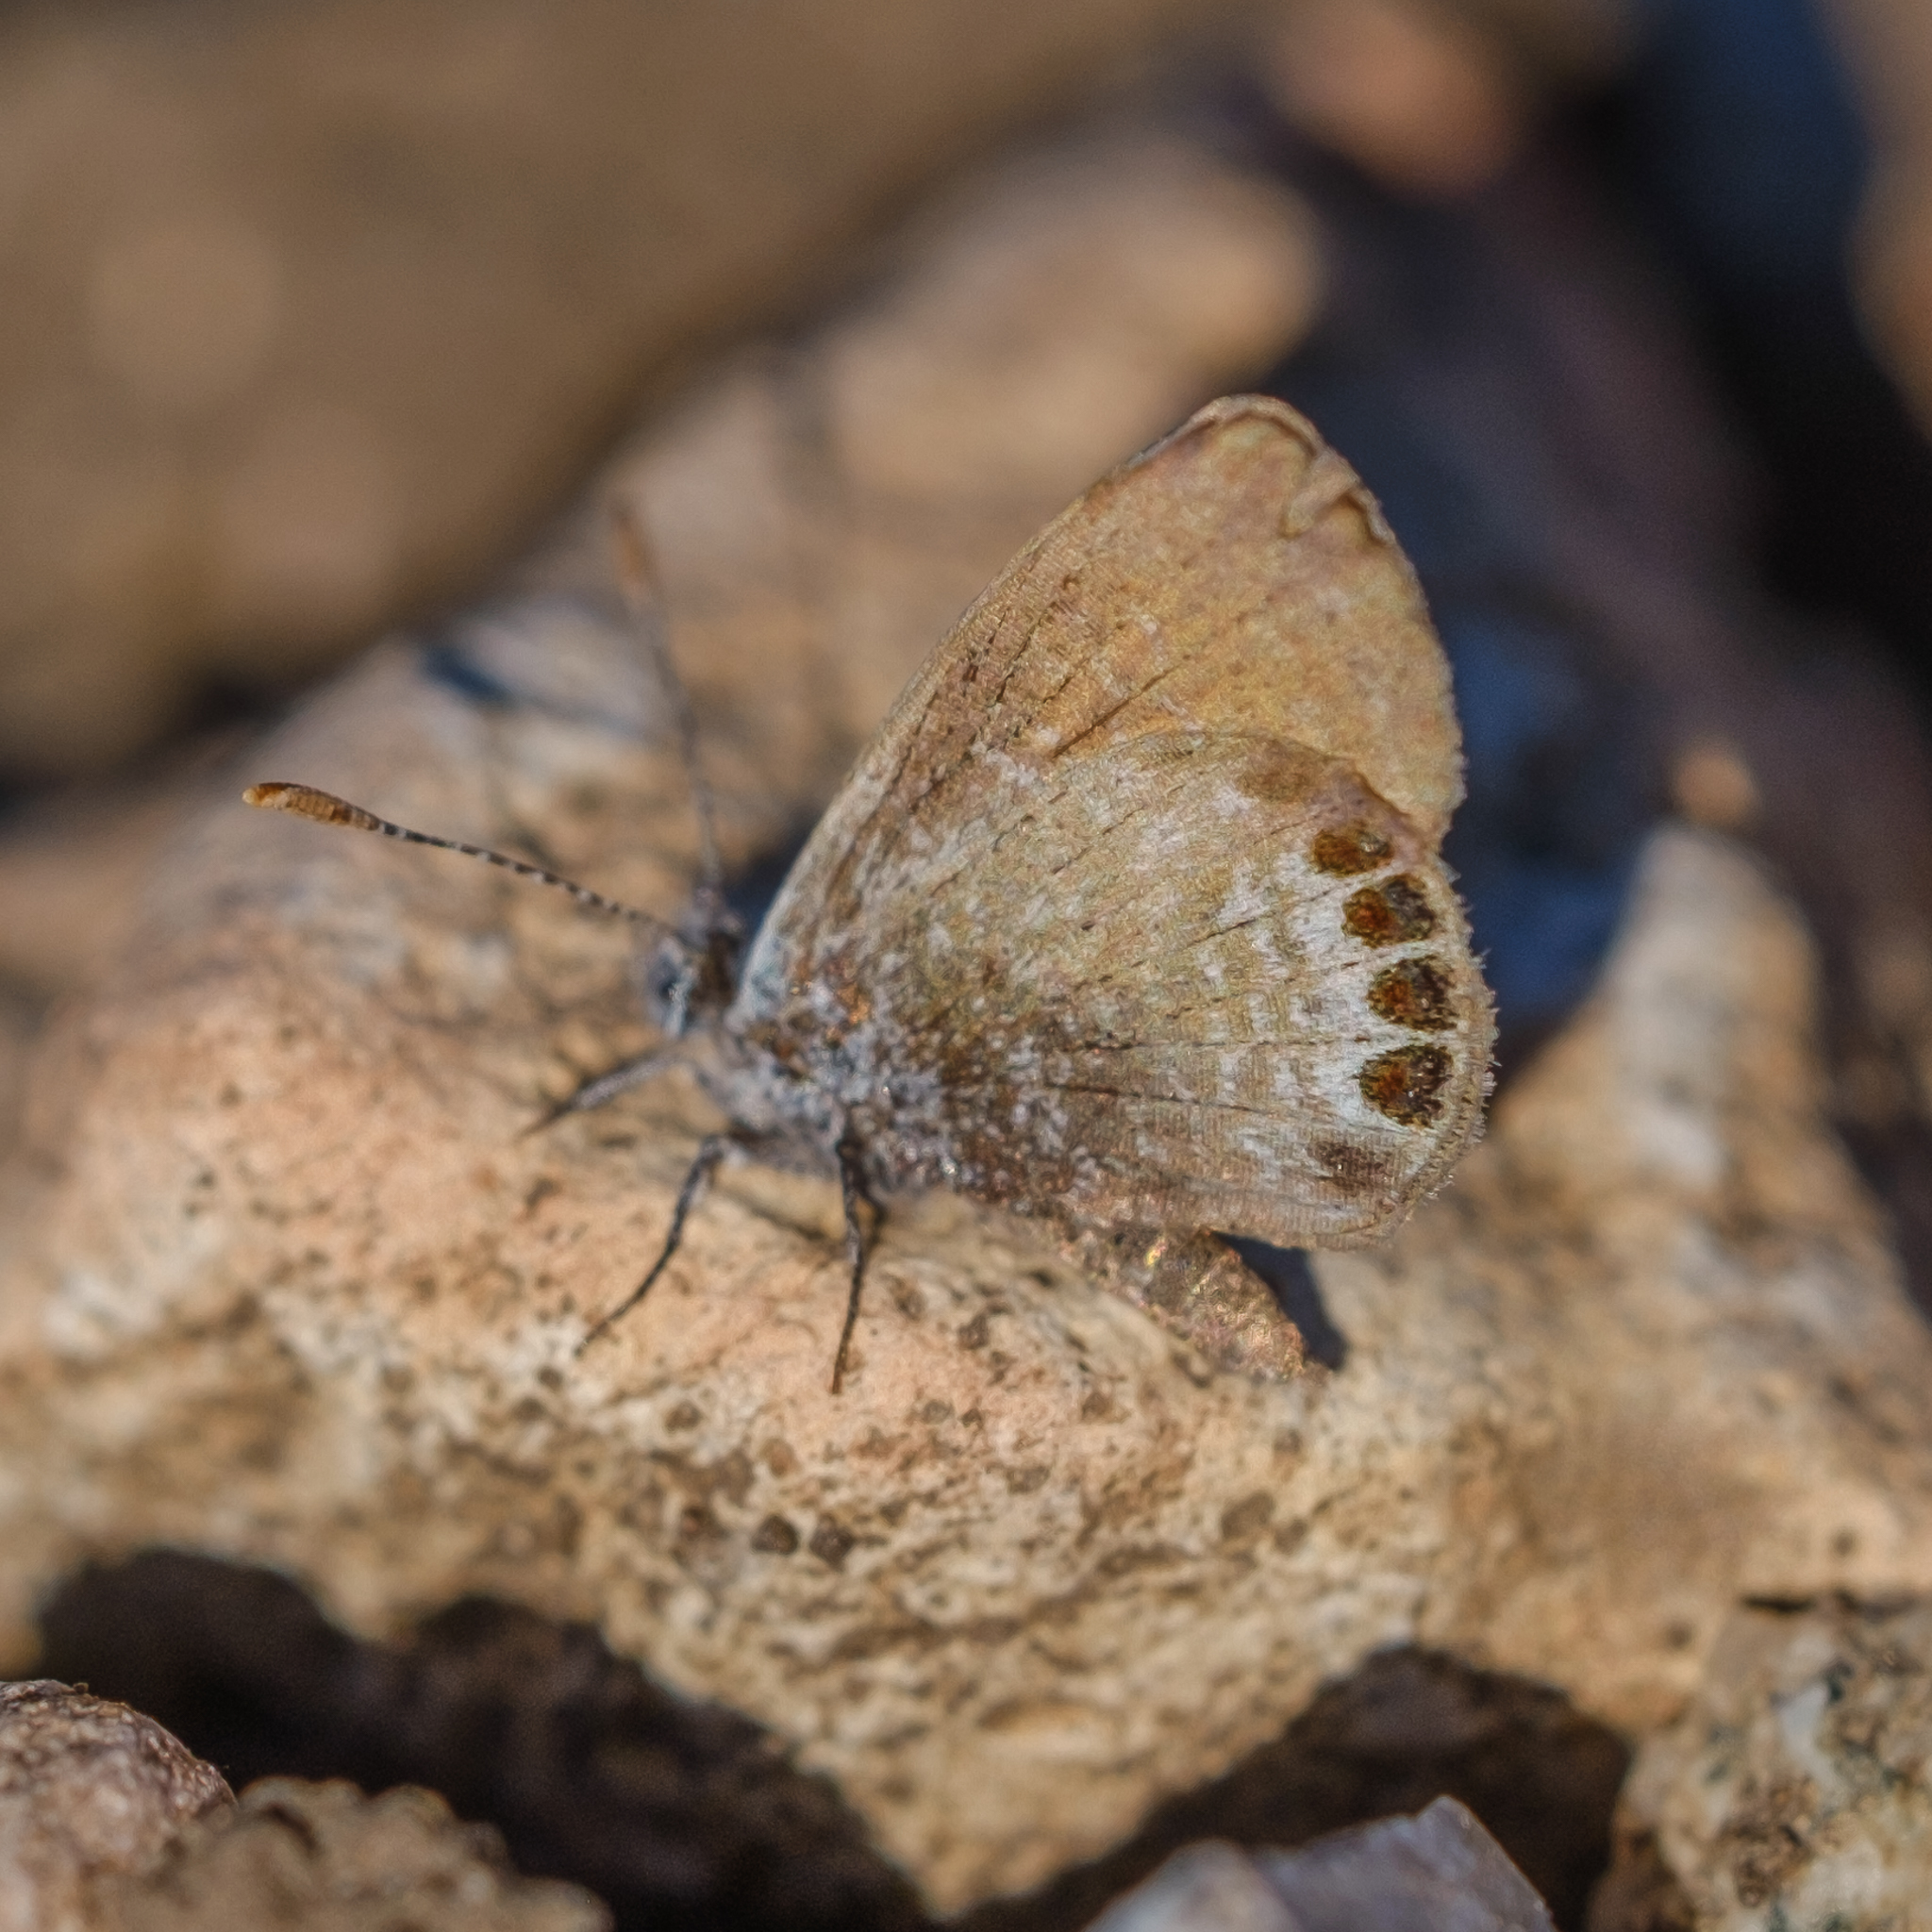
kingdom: Animalia
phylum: Arthropoda
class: Insecta
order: Lepidoptera
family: Lycaenidae
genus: Brephidium
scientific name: Brephidium exilis
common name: Pygmy blue
